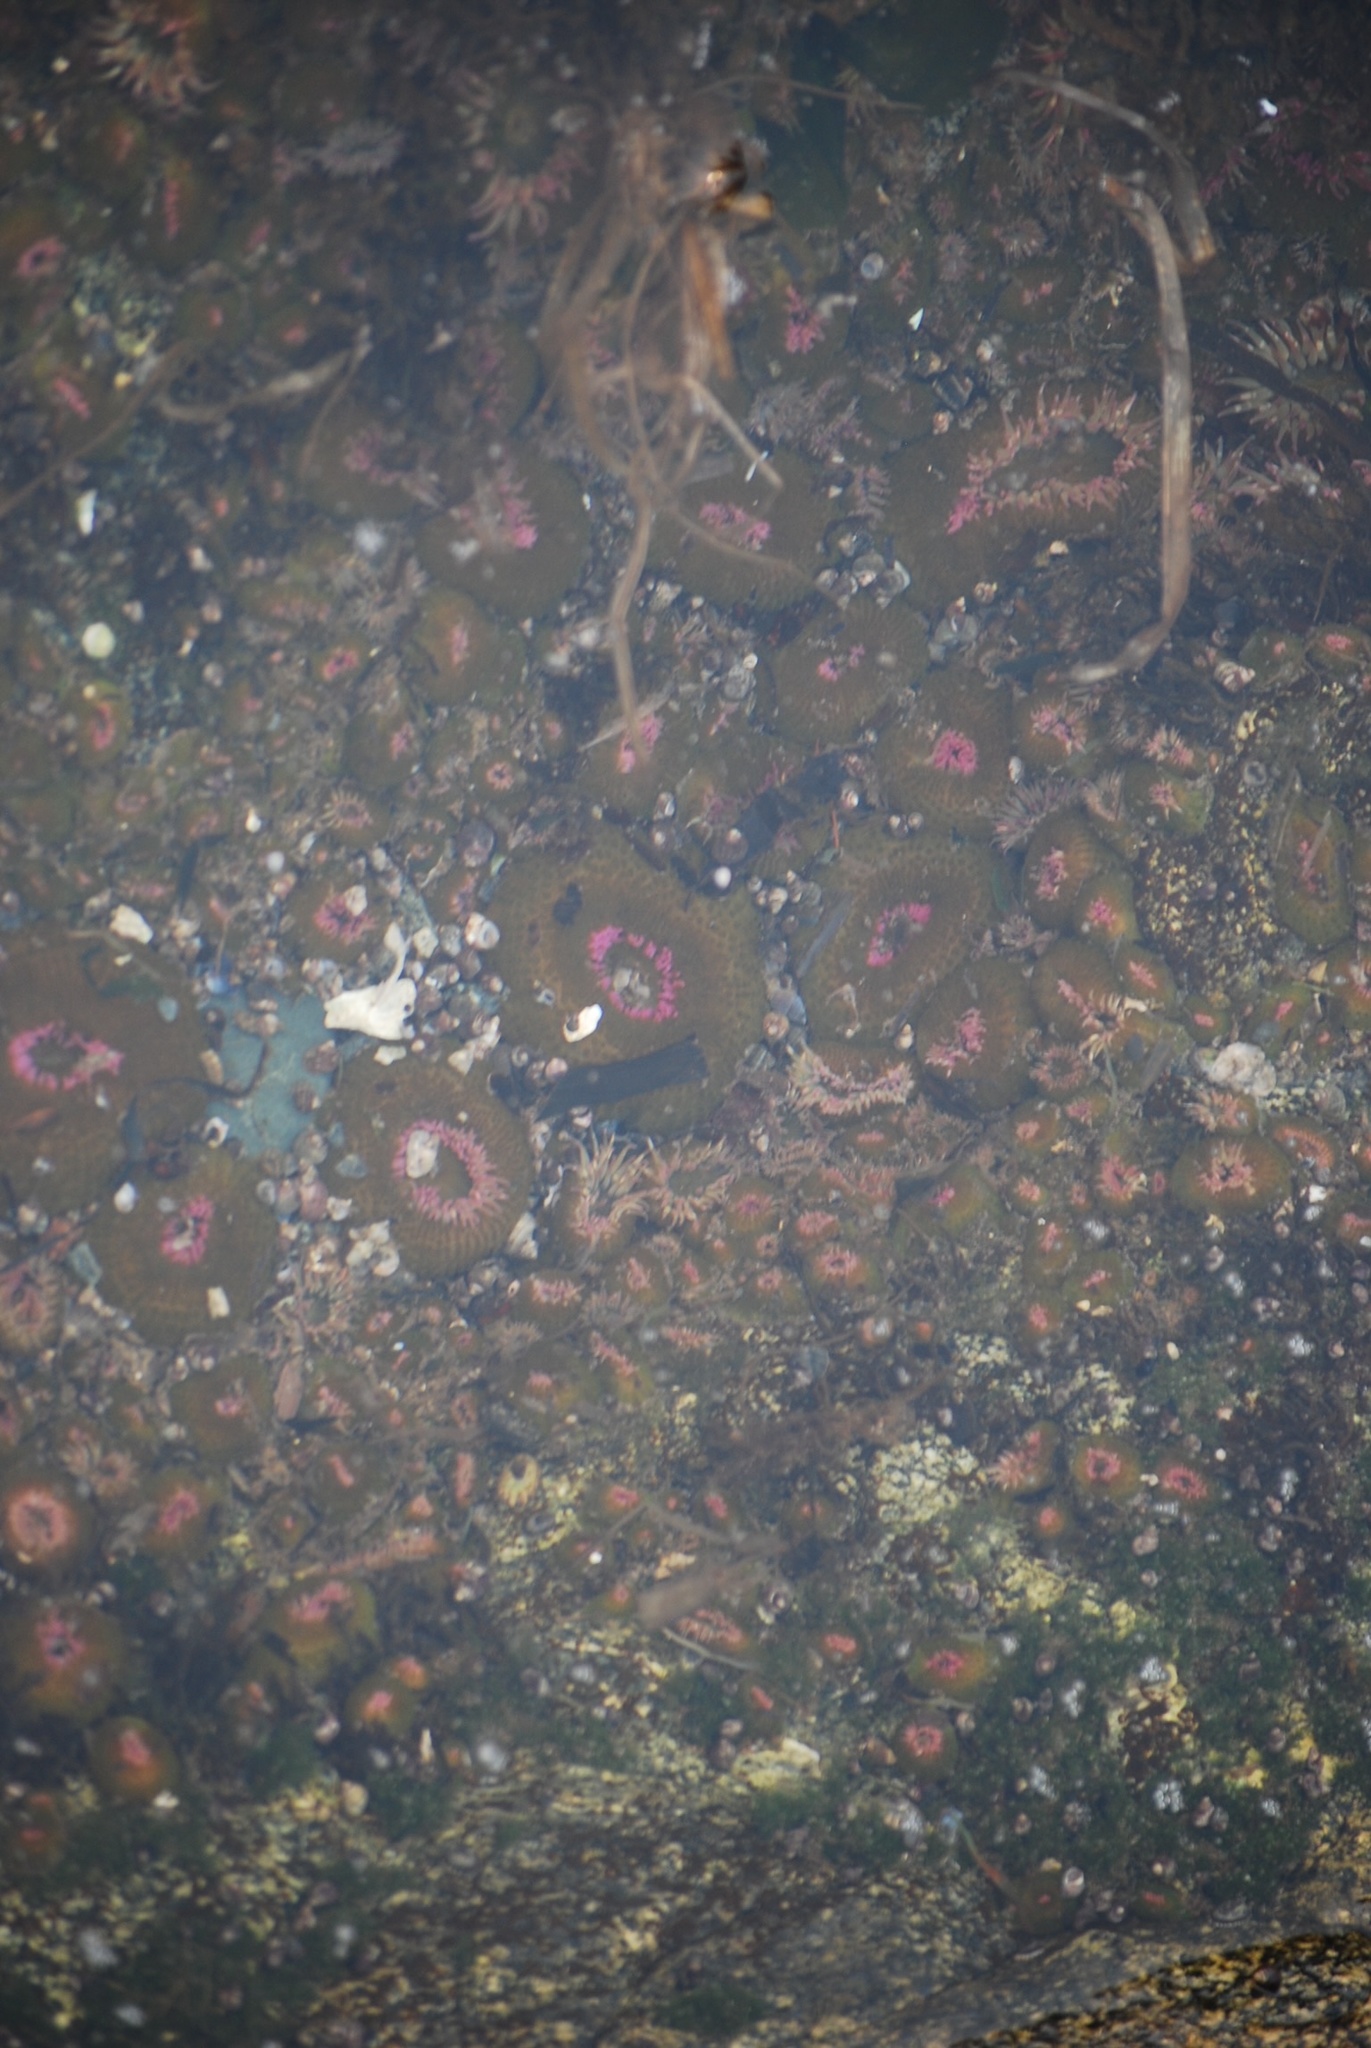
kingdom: Animalia
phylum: Cnidaria
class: Anthozoa
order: Actiniaria
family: Actiniidae
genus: Anthopleura
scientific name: Anthopleura elegantissima
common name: Clonal anemone
